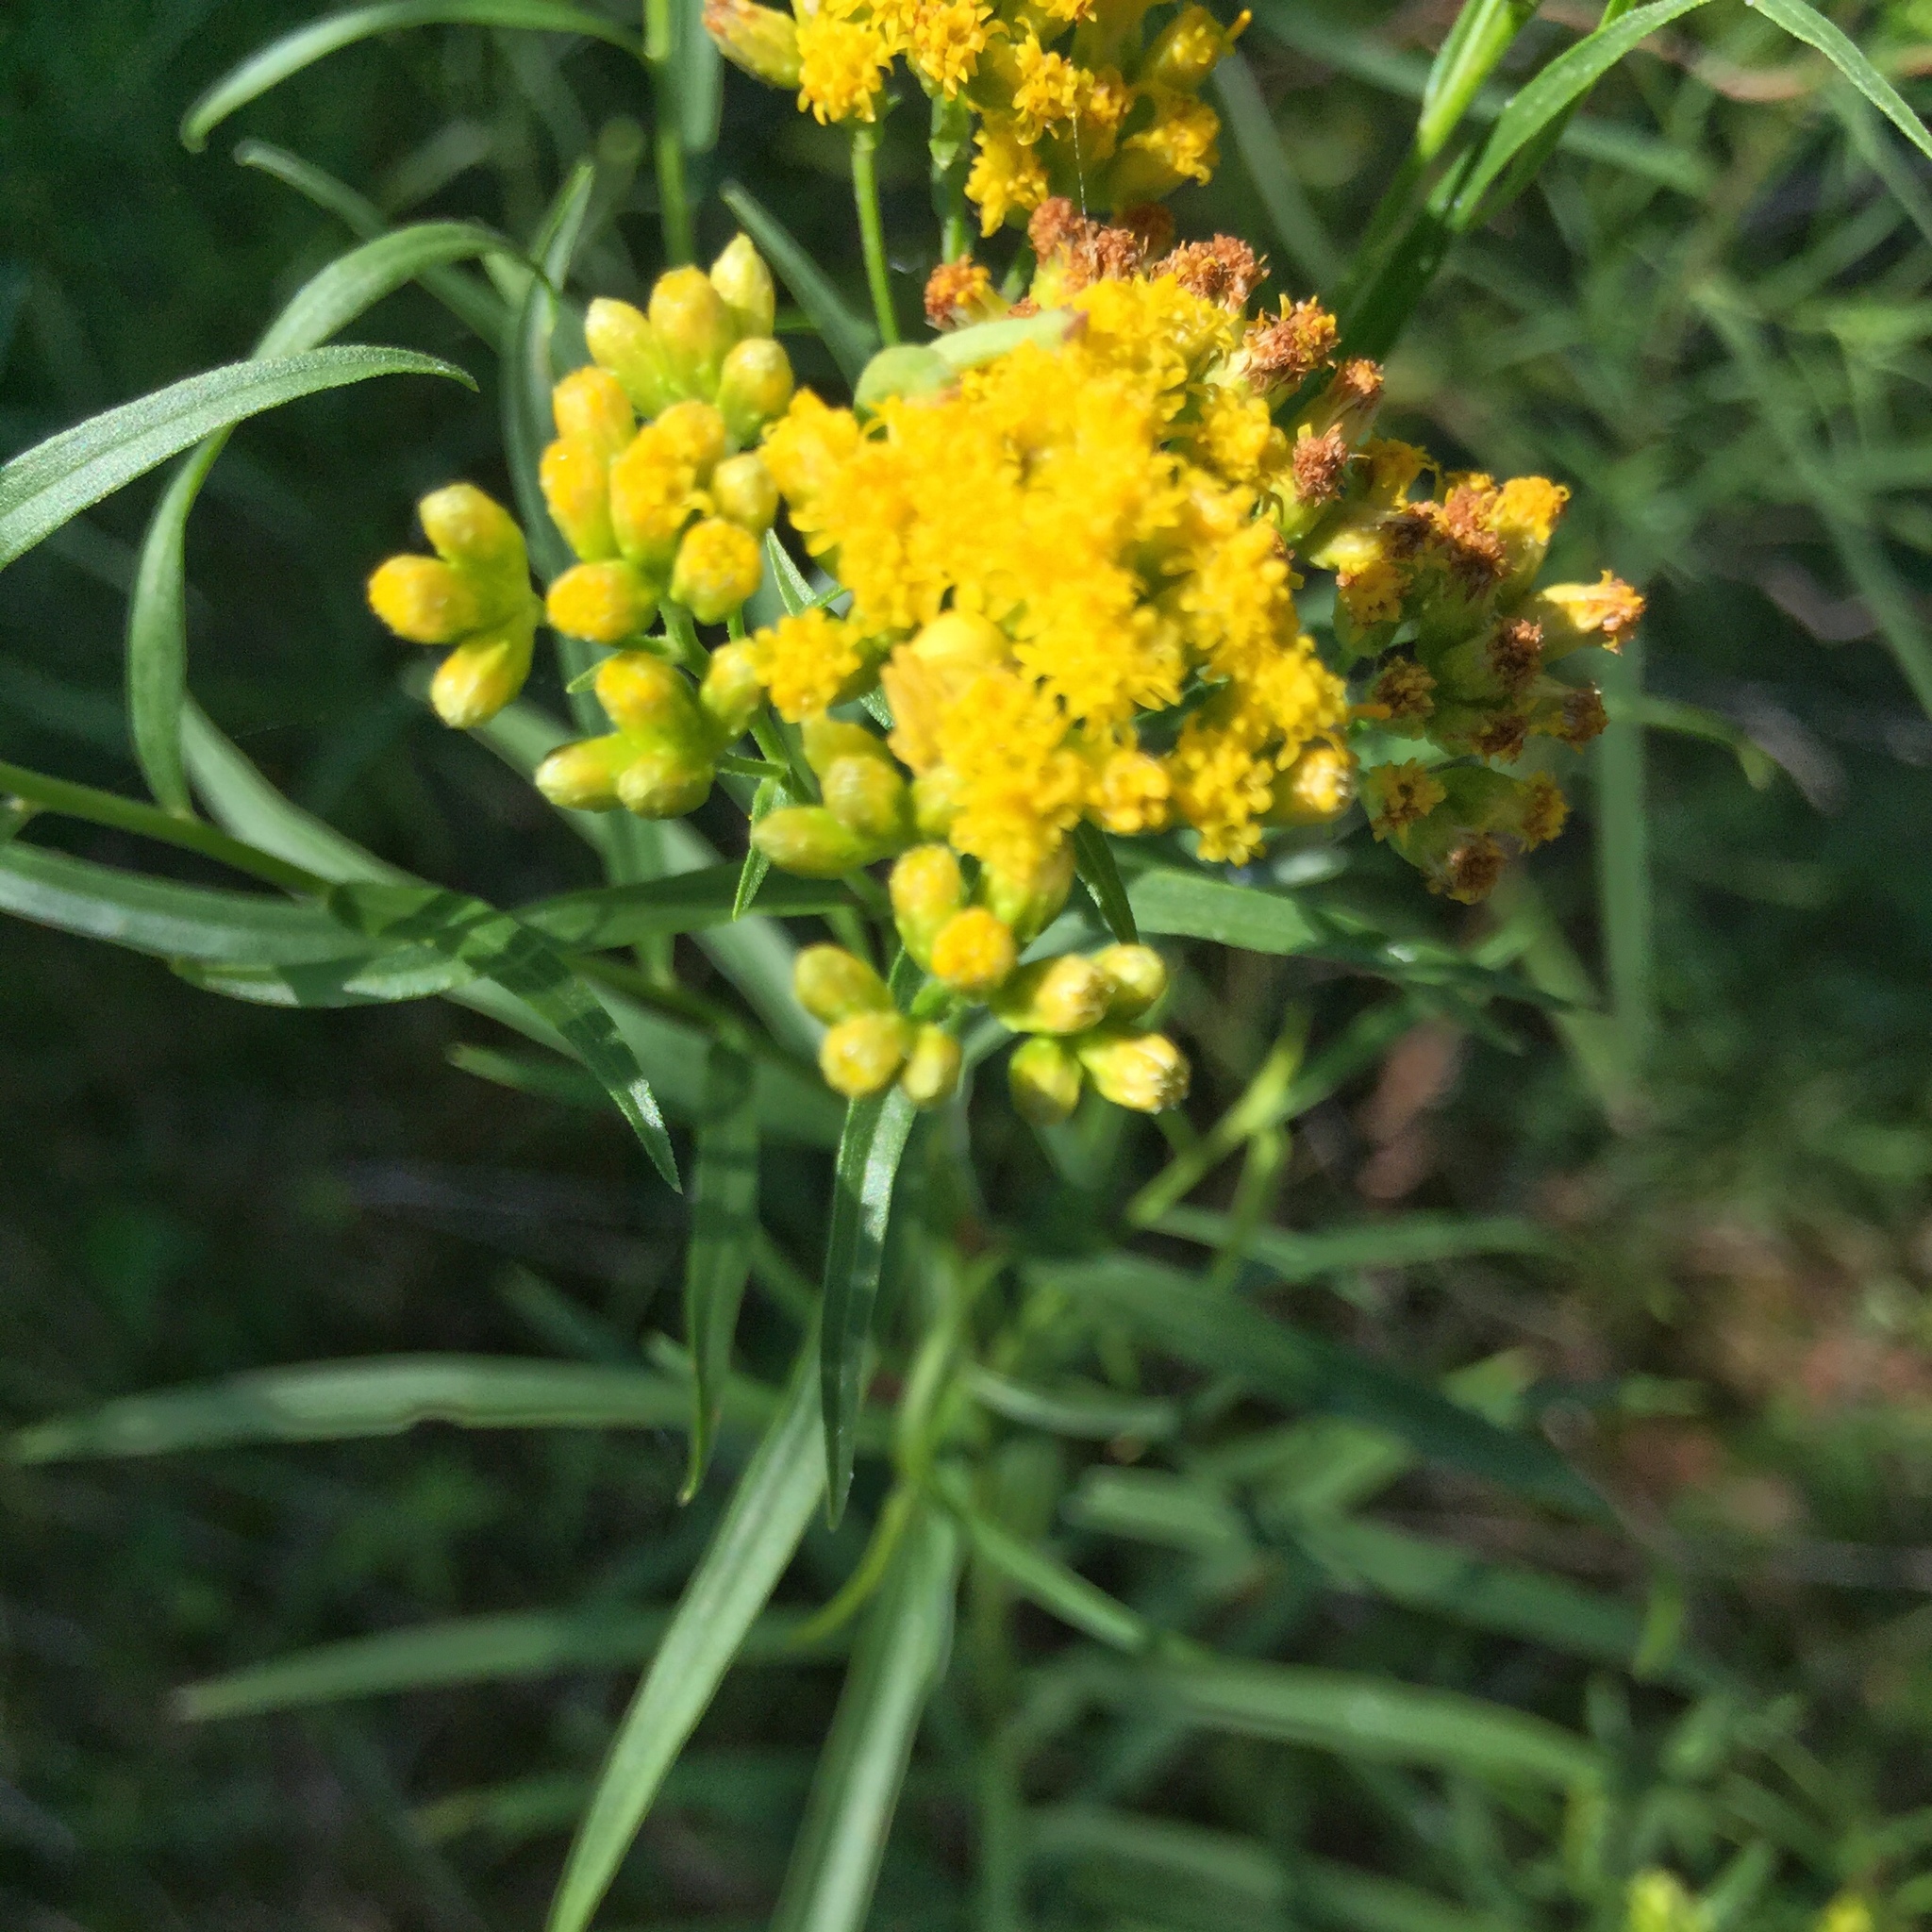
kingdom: Plantae
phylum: Tracheophyta
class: Magnoliopsida
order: Asterales
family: Asteraceae
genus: Euthamia
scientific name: Euthamia graminifolia
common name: Common goldentop
